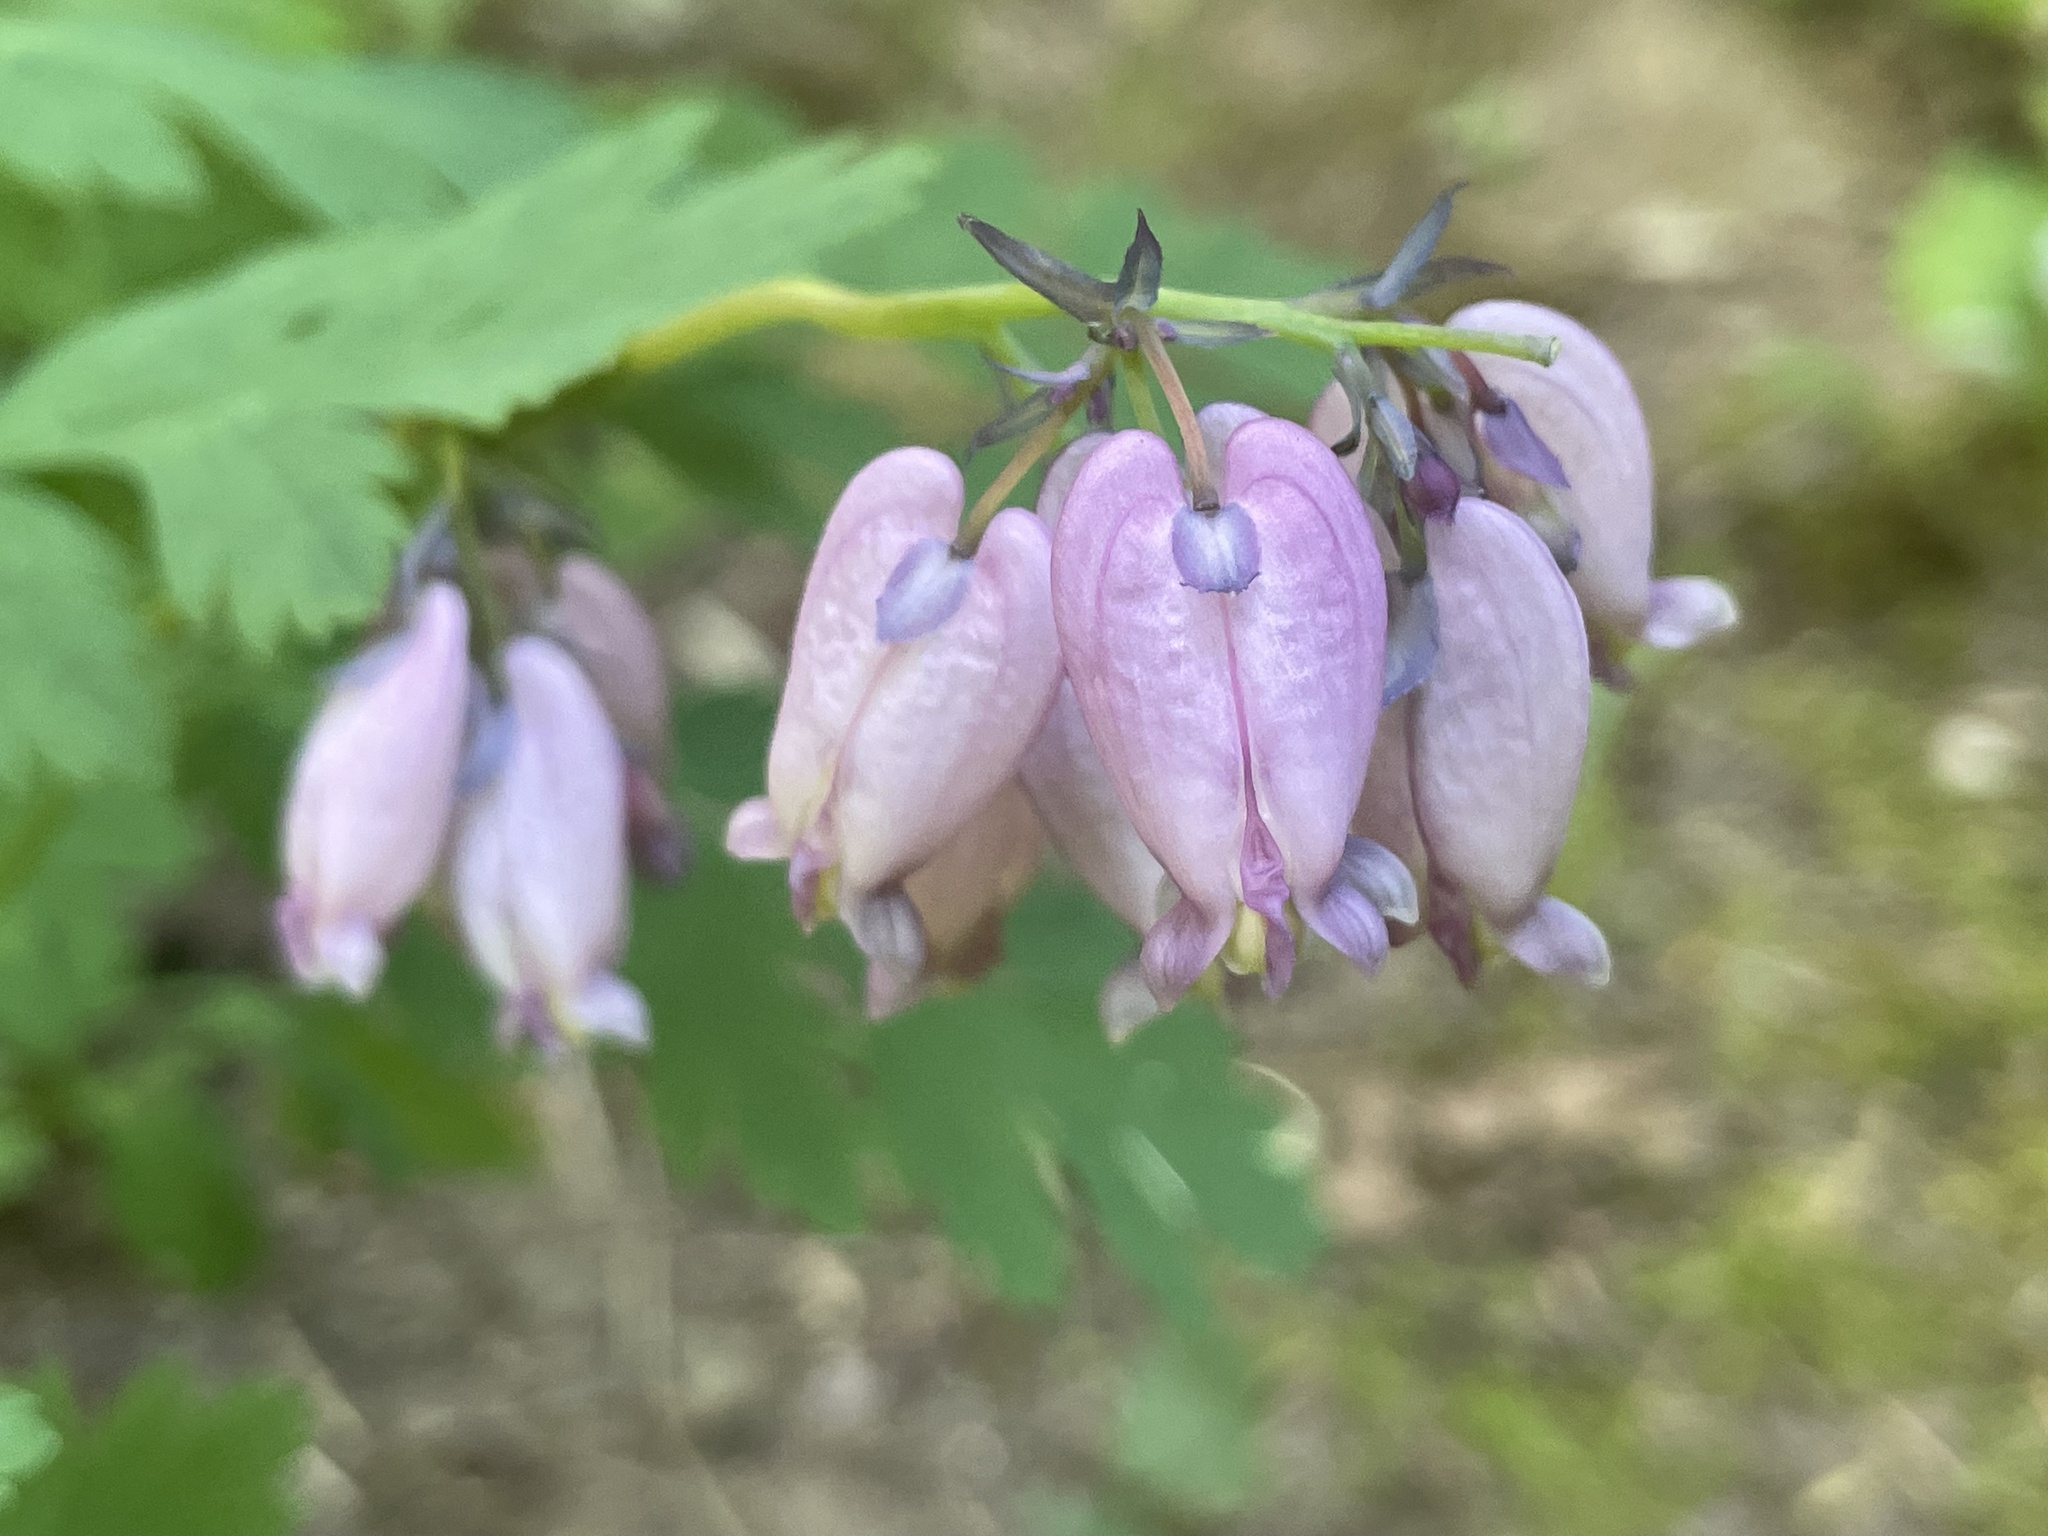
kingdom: Plantae
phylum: Tracheophyta
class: Magnoliopsida
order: Ranunculales
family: Papaveraceae
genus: Dicentra
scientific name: Dicentra formosa
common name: Bleeding-heart
